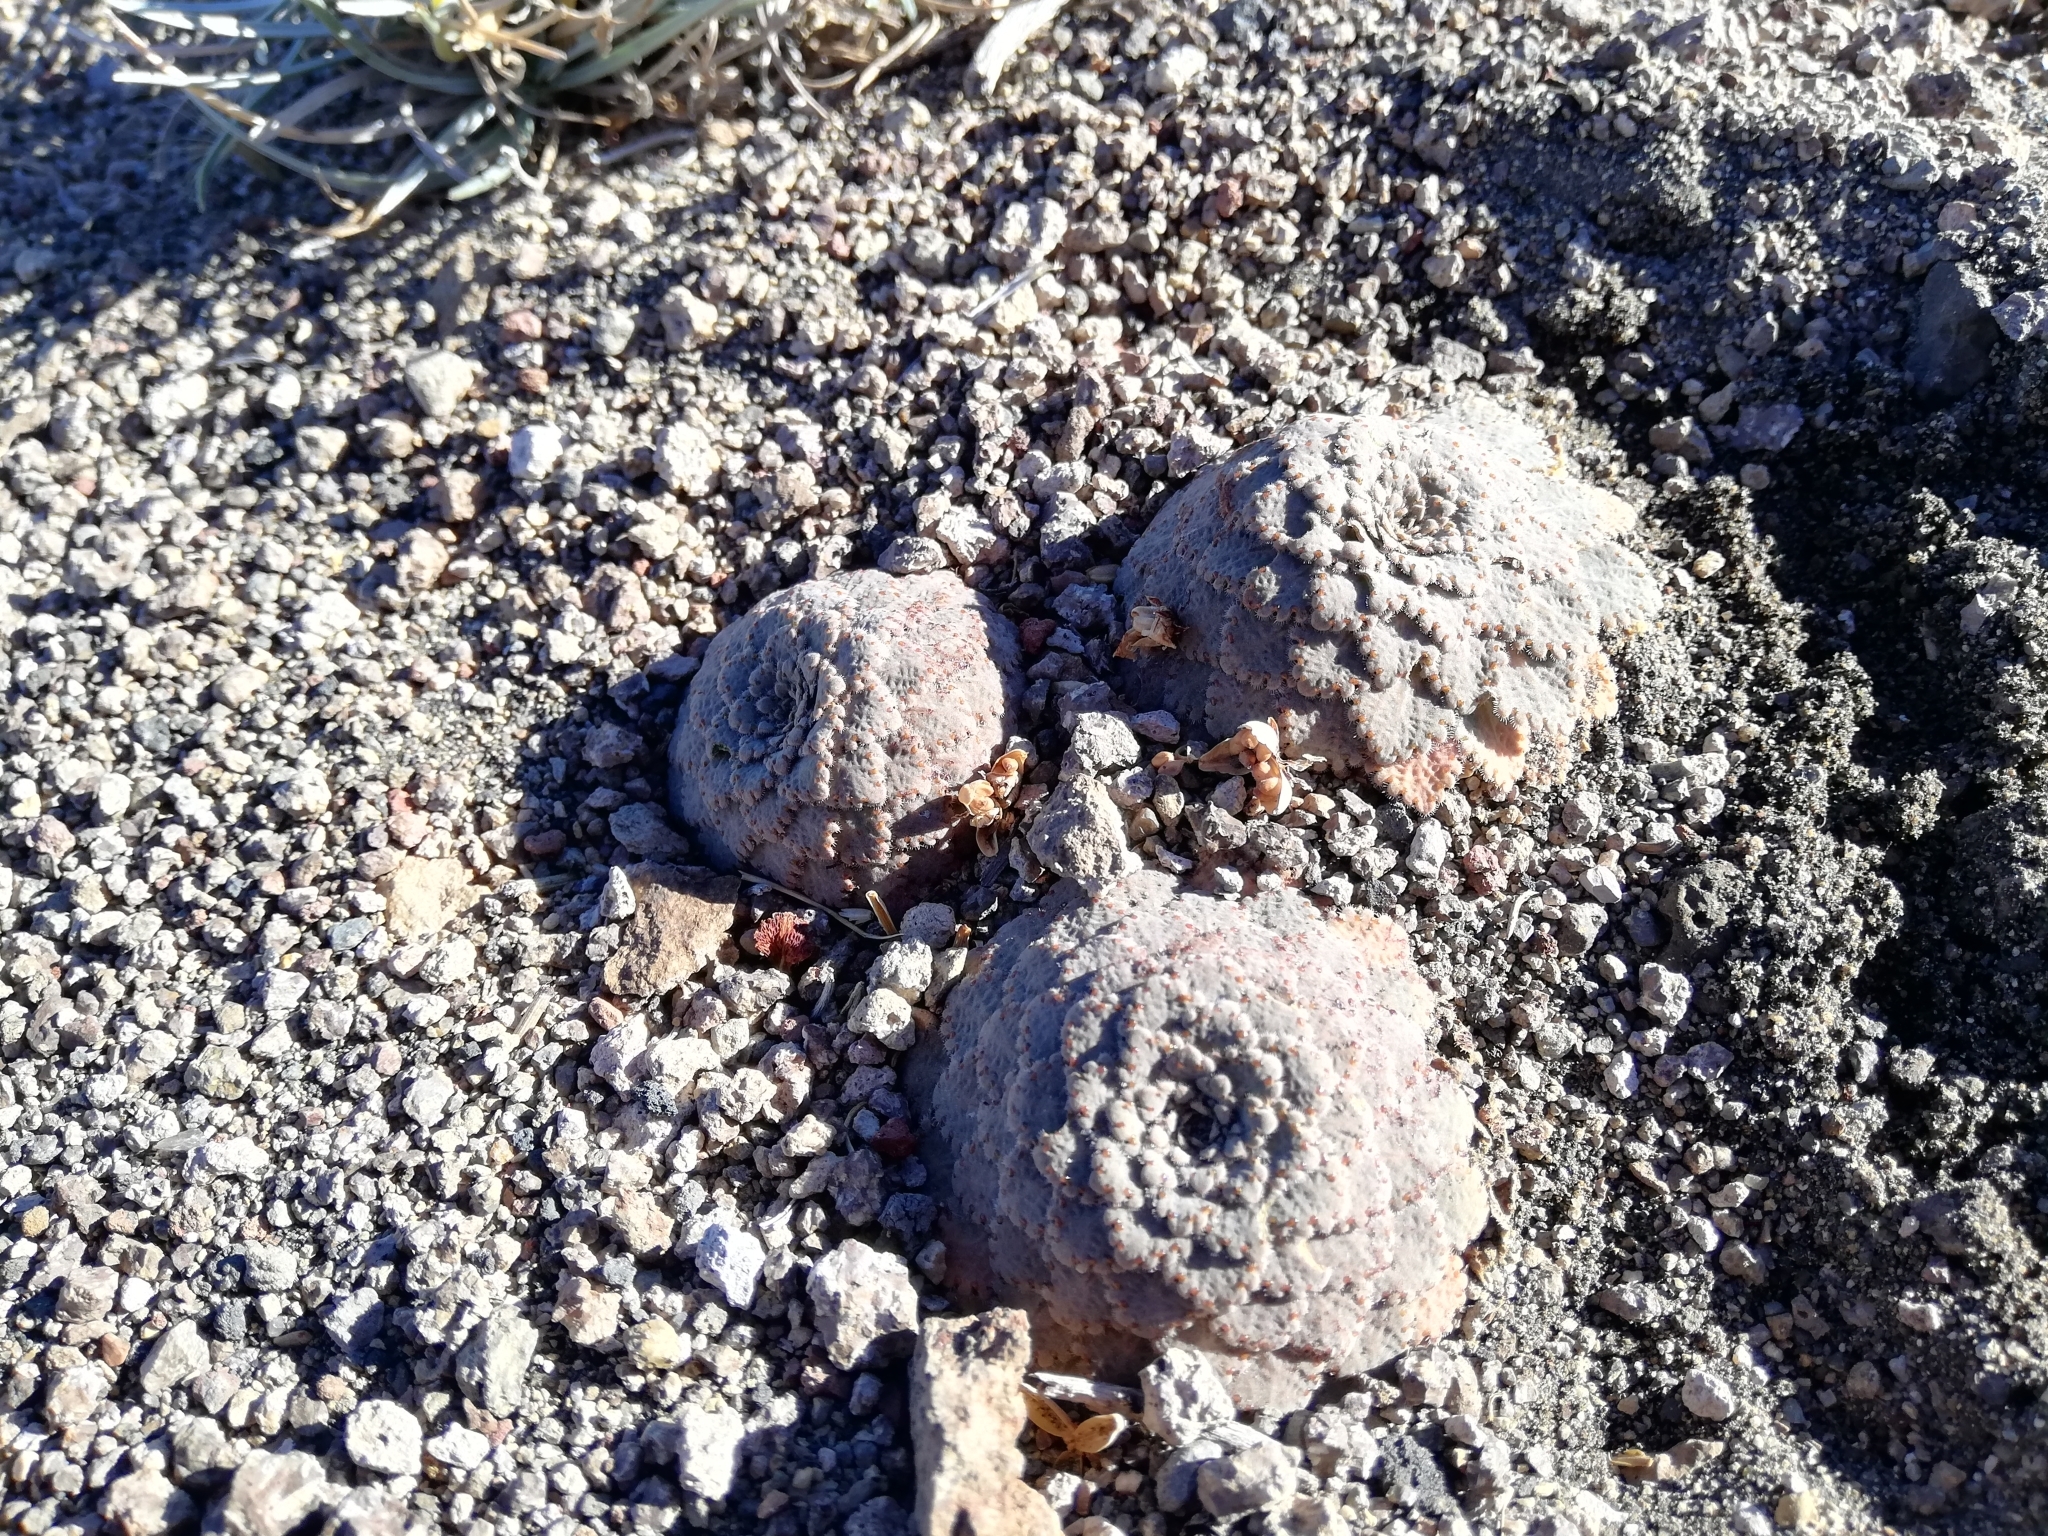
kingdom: Plantae
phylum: Tracheophyta
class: Magnoliopsida
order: Malpighiales
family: Violaceae
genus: Viola
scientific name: Viola congesta
